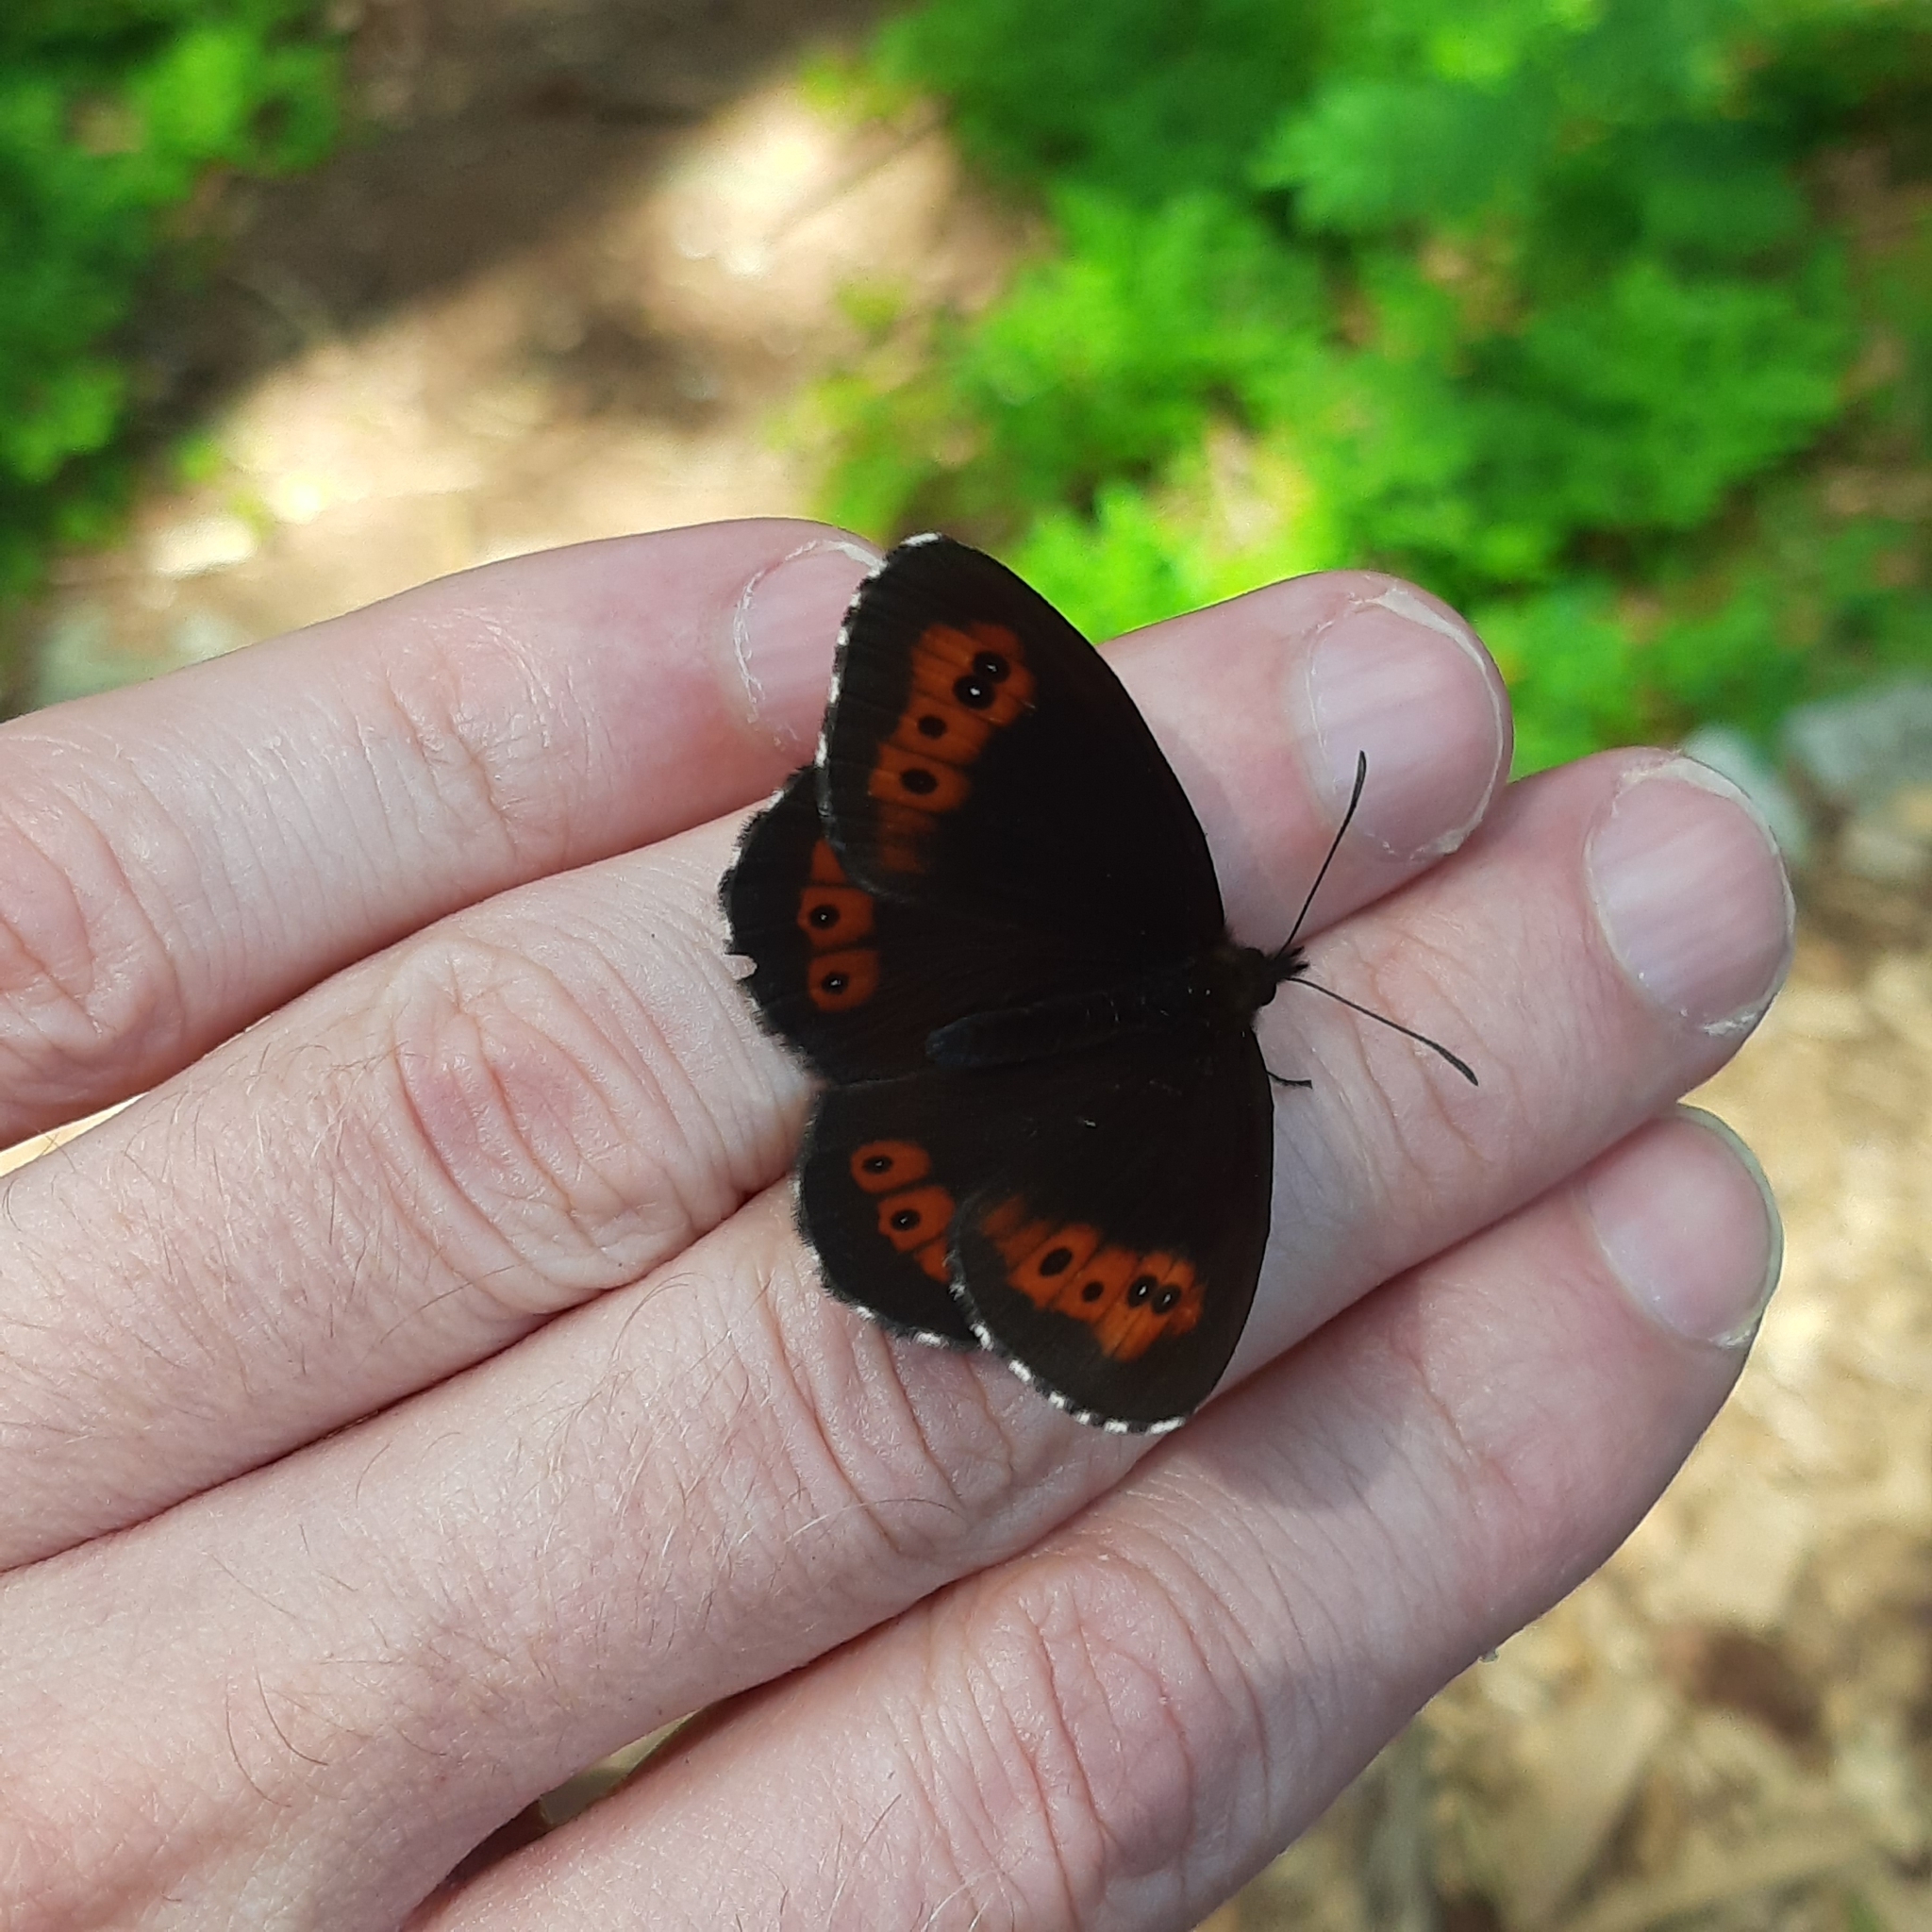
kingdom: Animalia
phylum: Arthropoda
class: Insecta
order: Lepidoptera
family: Nymphalidae
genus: Erebia
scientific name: Erebia ligea
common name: Arran brown
